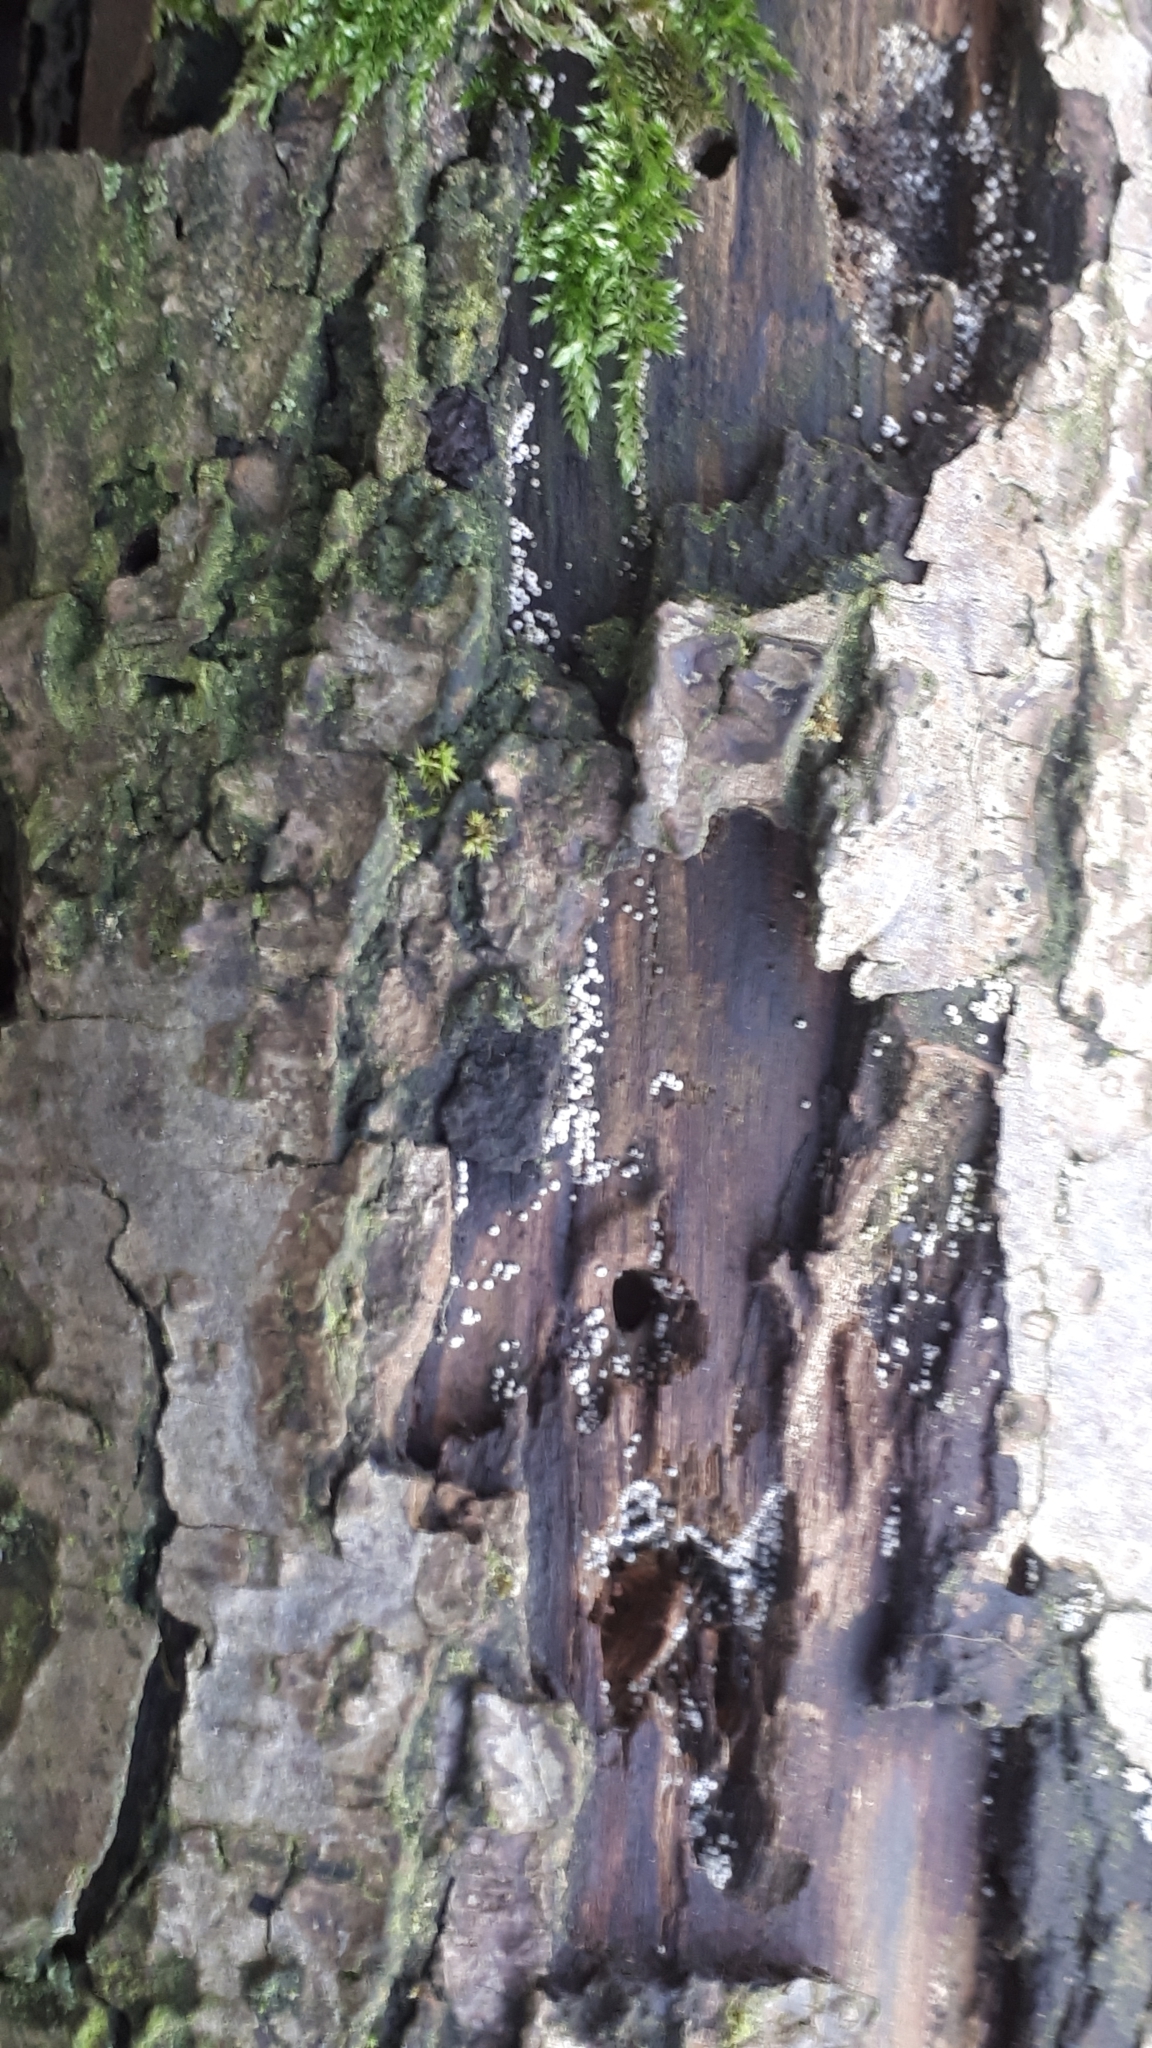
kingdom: Fungi
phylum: Ascomycota
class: Sordariomycetes
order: Sordariales
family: Lasiosphaeriaceae
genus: Lasiosphaeria
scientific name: Lasiosphaeria ovina
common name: Woolly woodwart
